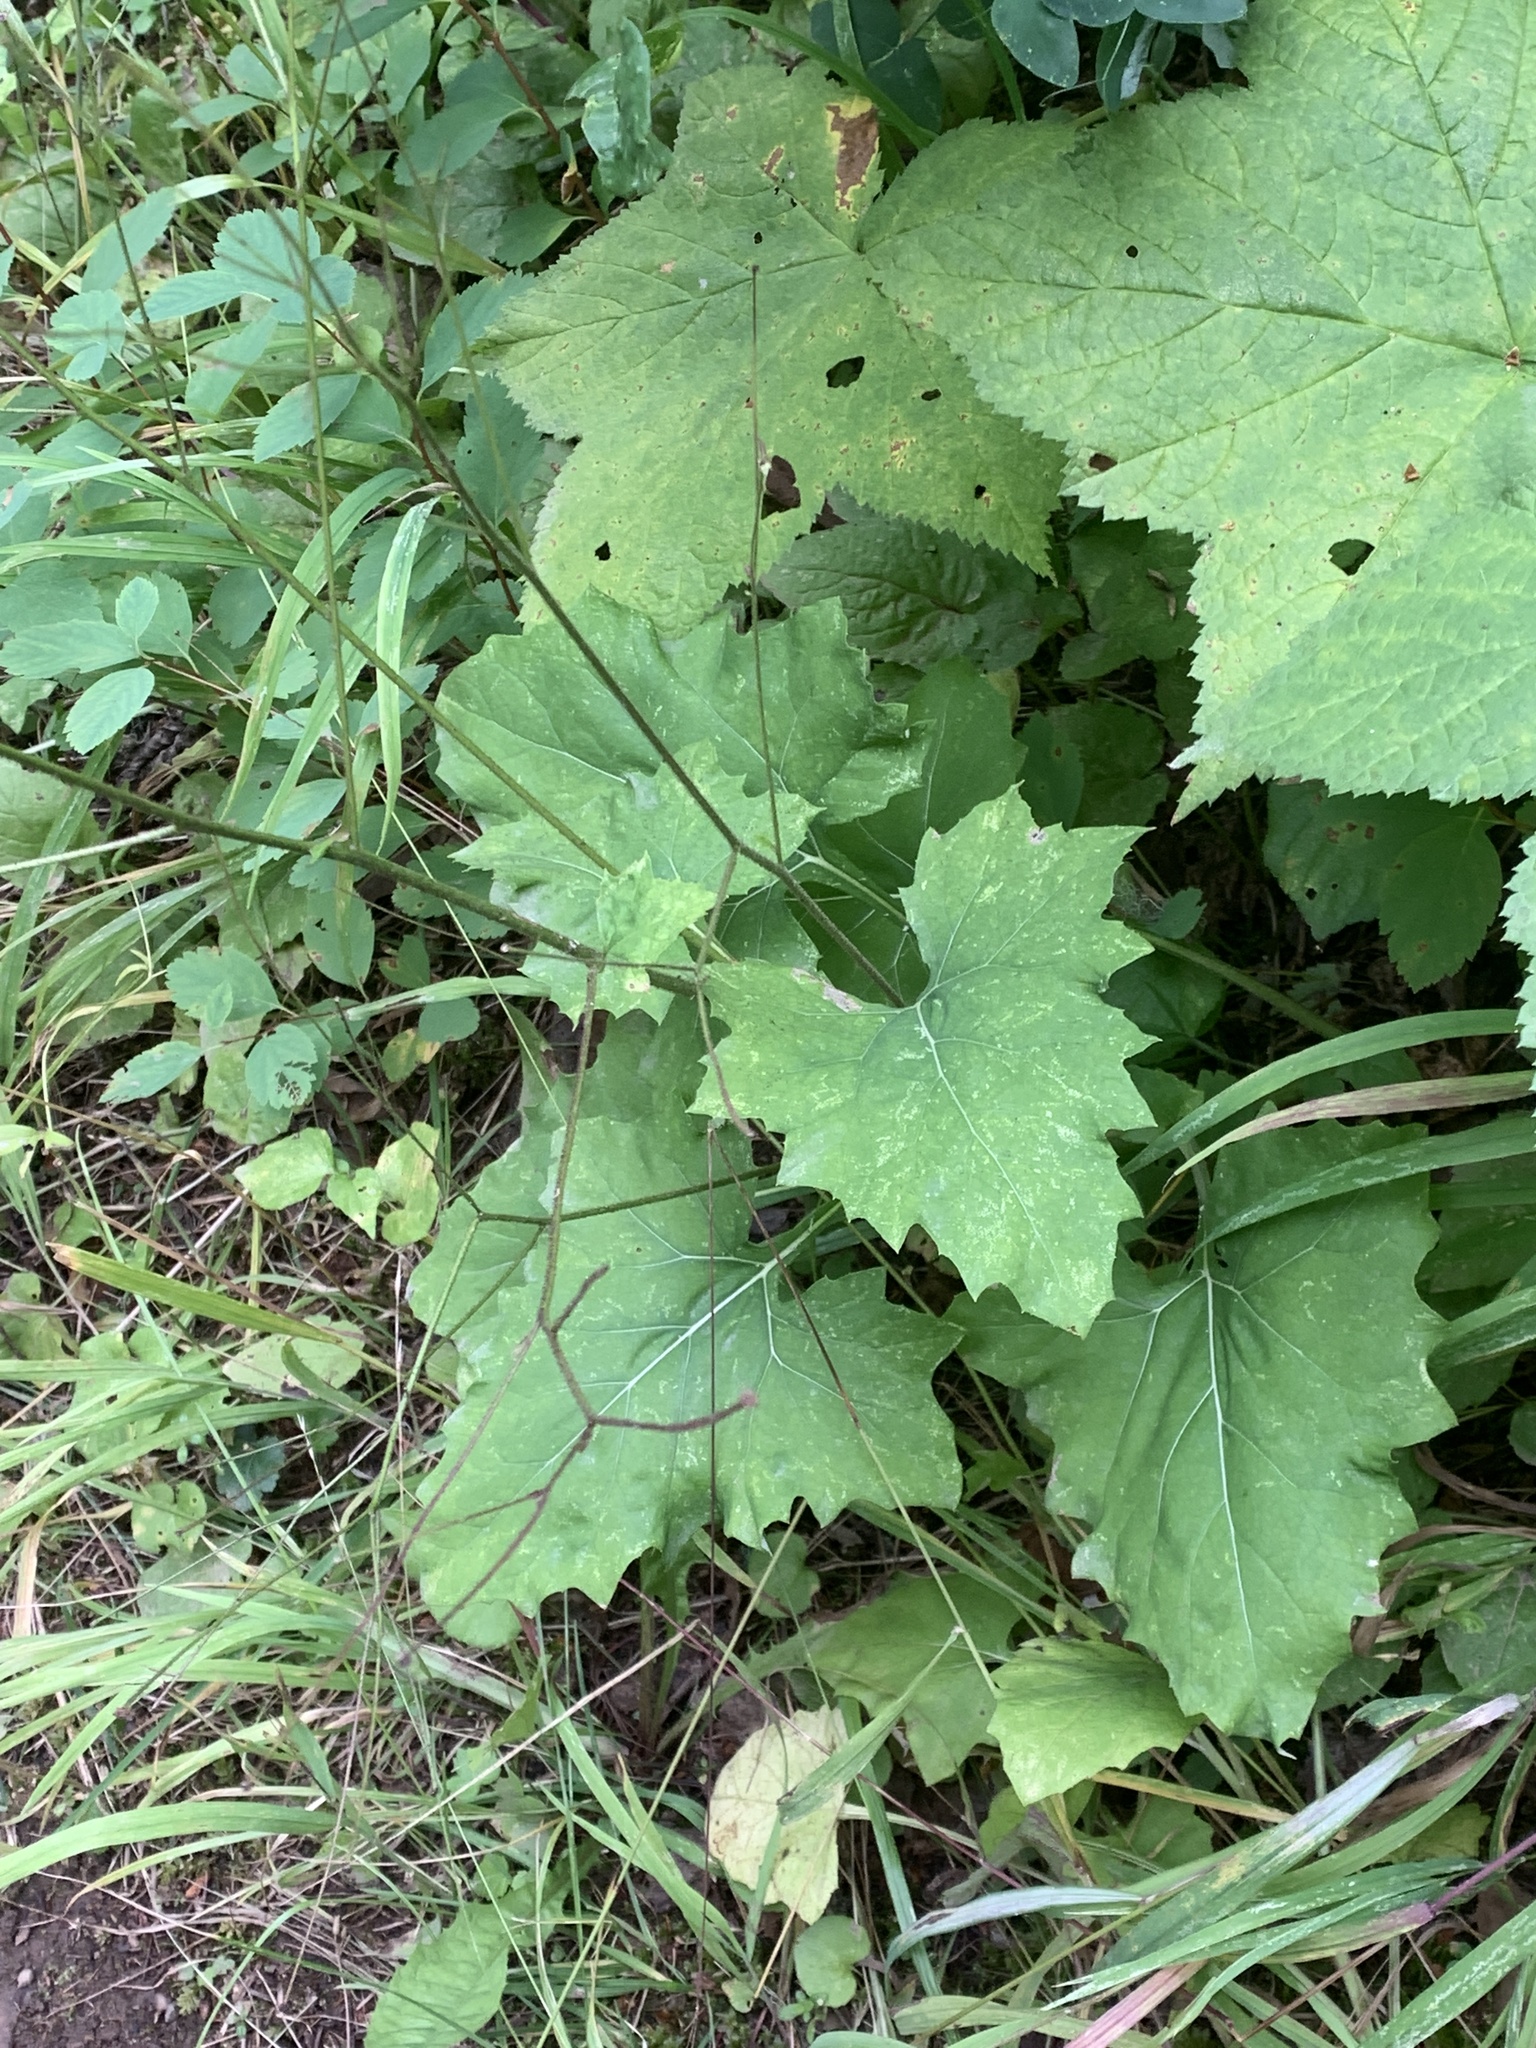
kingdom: Plantae
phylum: Tracheophyta
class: Magnoliopsida
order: Asterales
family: Asteraceae
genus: Adenocaulon
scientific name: Adenocaulon bicolor
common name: Trailplant
